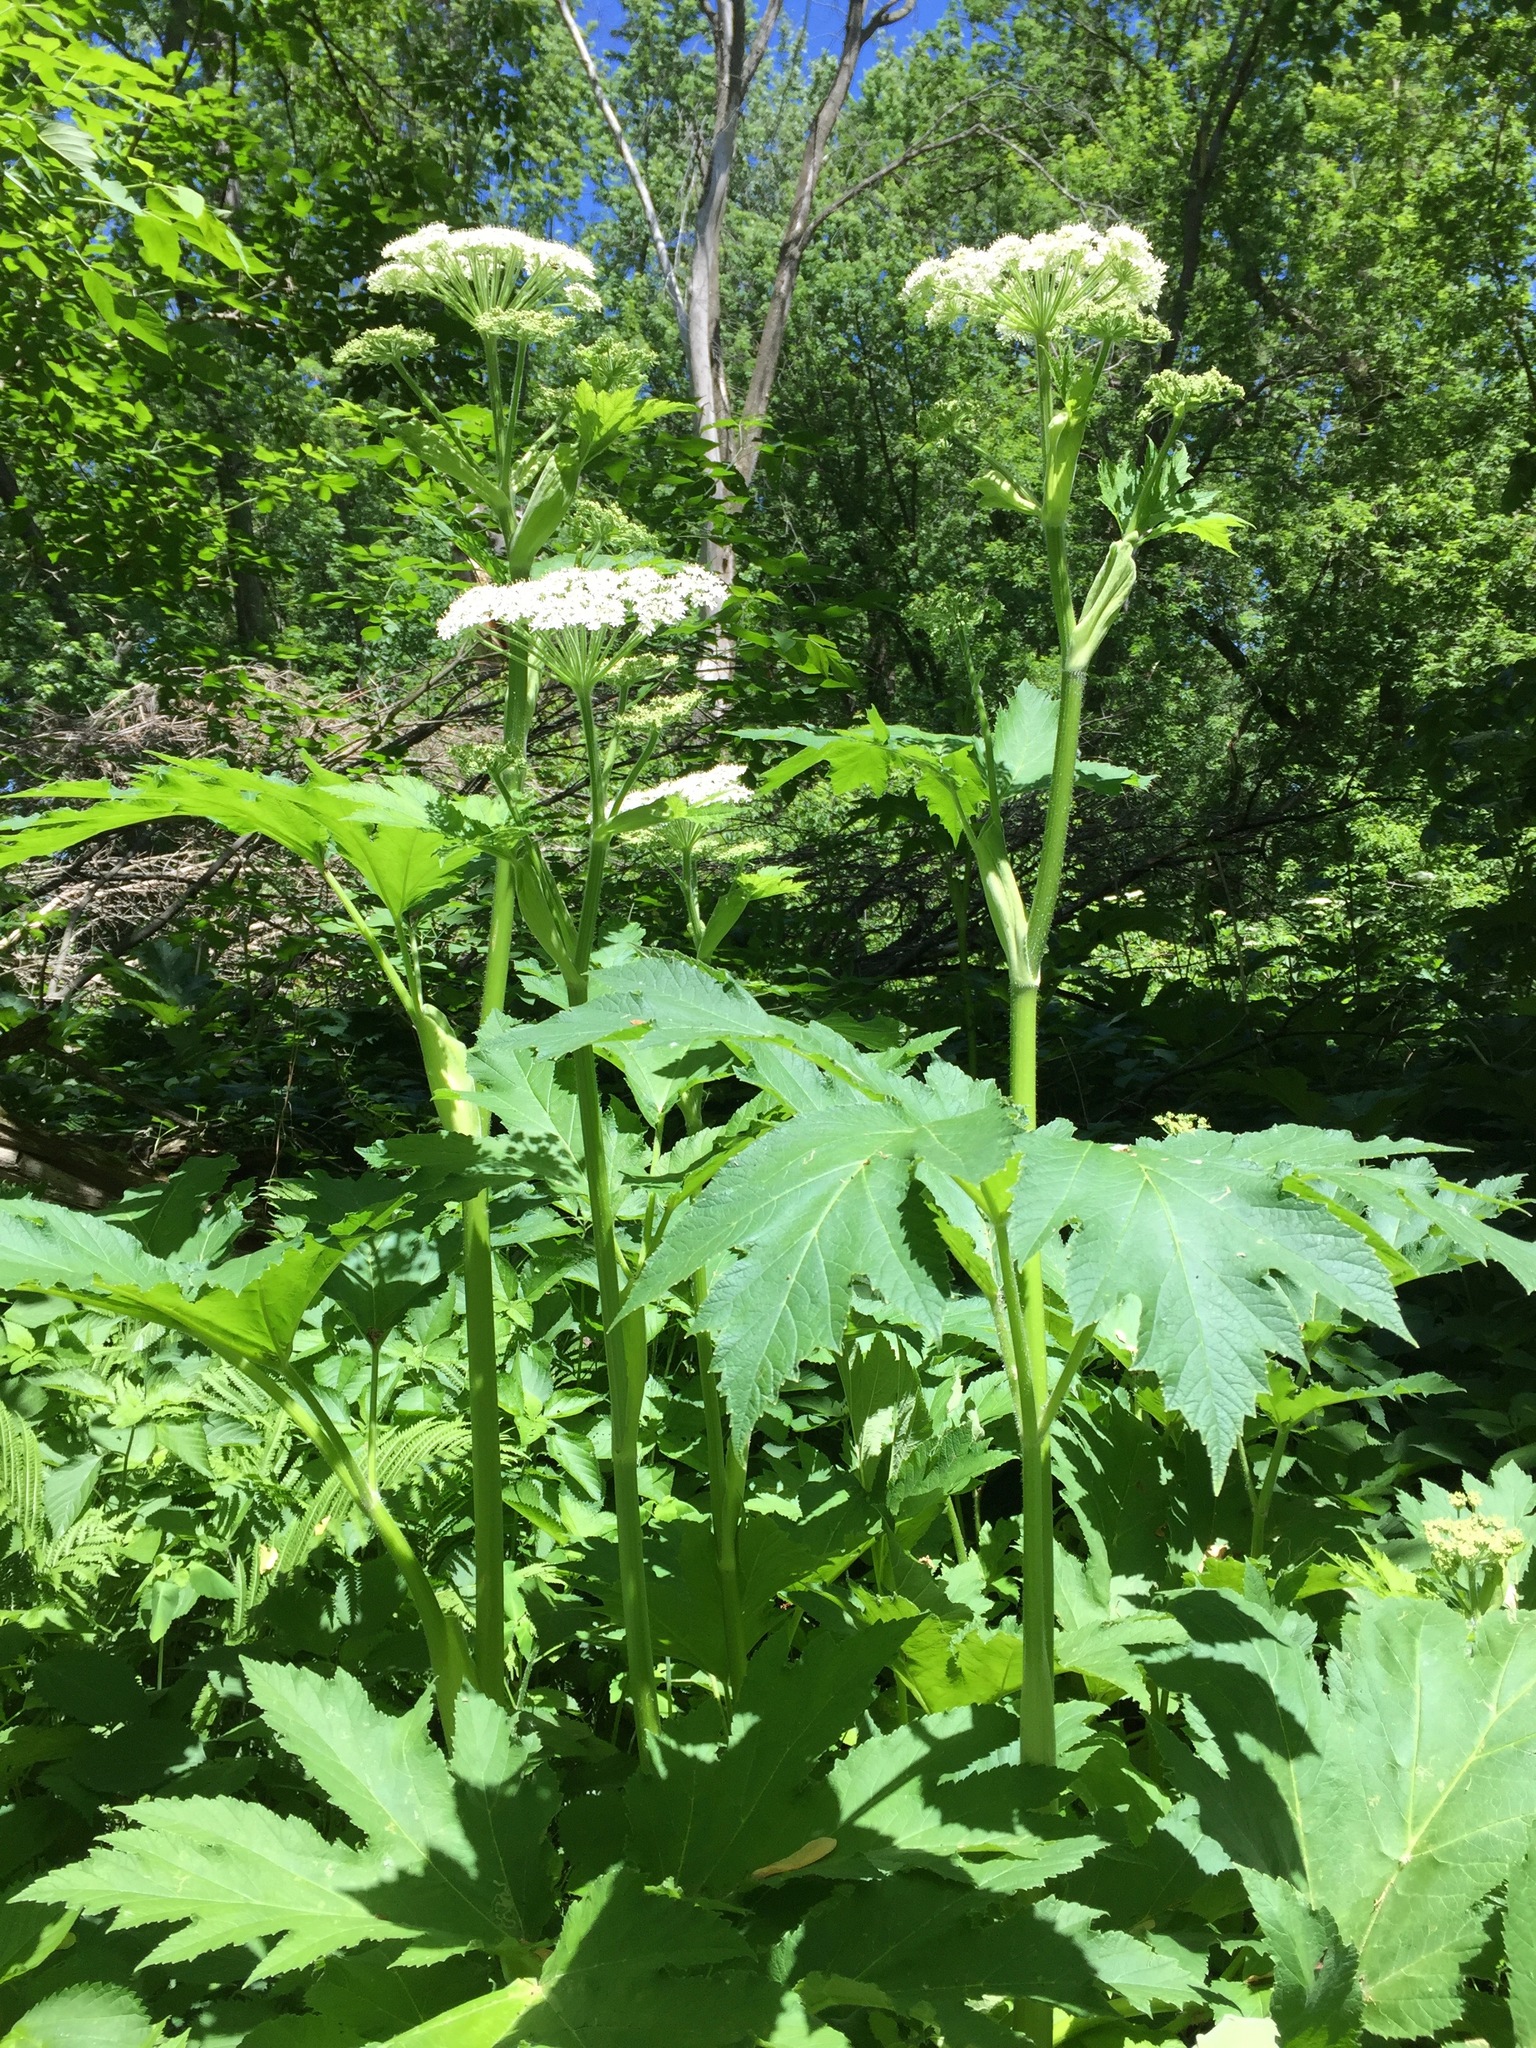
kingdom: Plantae
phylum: Tracheophyta
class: Magnoliopsida
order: Apiales
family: Apiaceae
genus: Heracleum
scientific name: Heracleum maximum
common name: American cow parsnip
